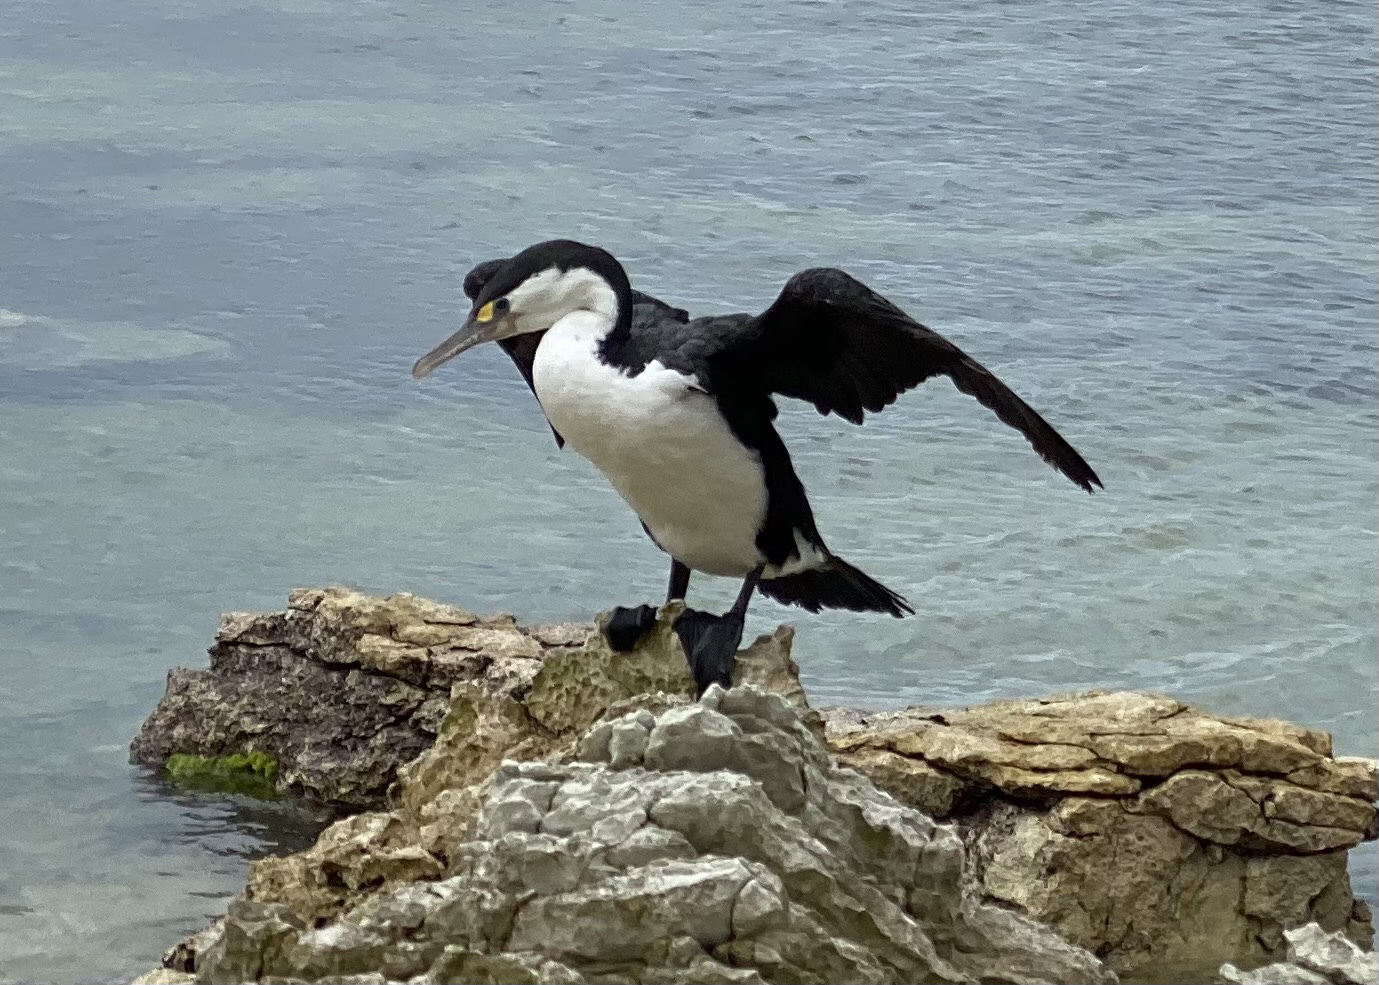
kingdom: Animalia
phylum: Chordata
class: Aves
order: Suliformes
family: Phalacrocoracidae
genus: Phalacrocorax
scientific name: Phalacrocorax varius
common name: Pied cormorant
